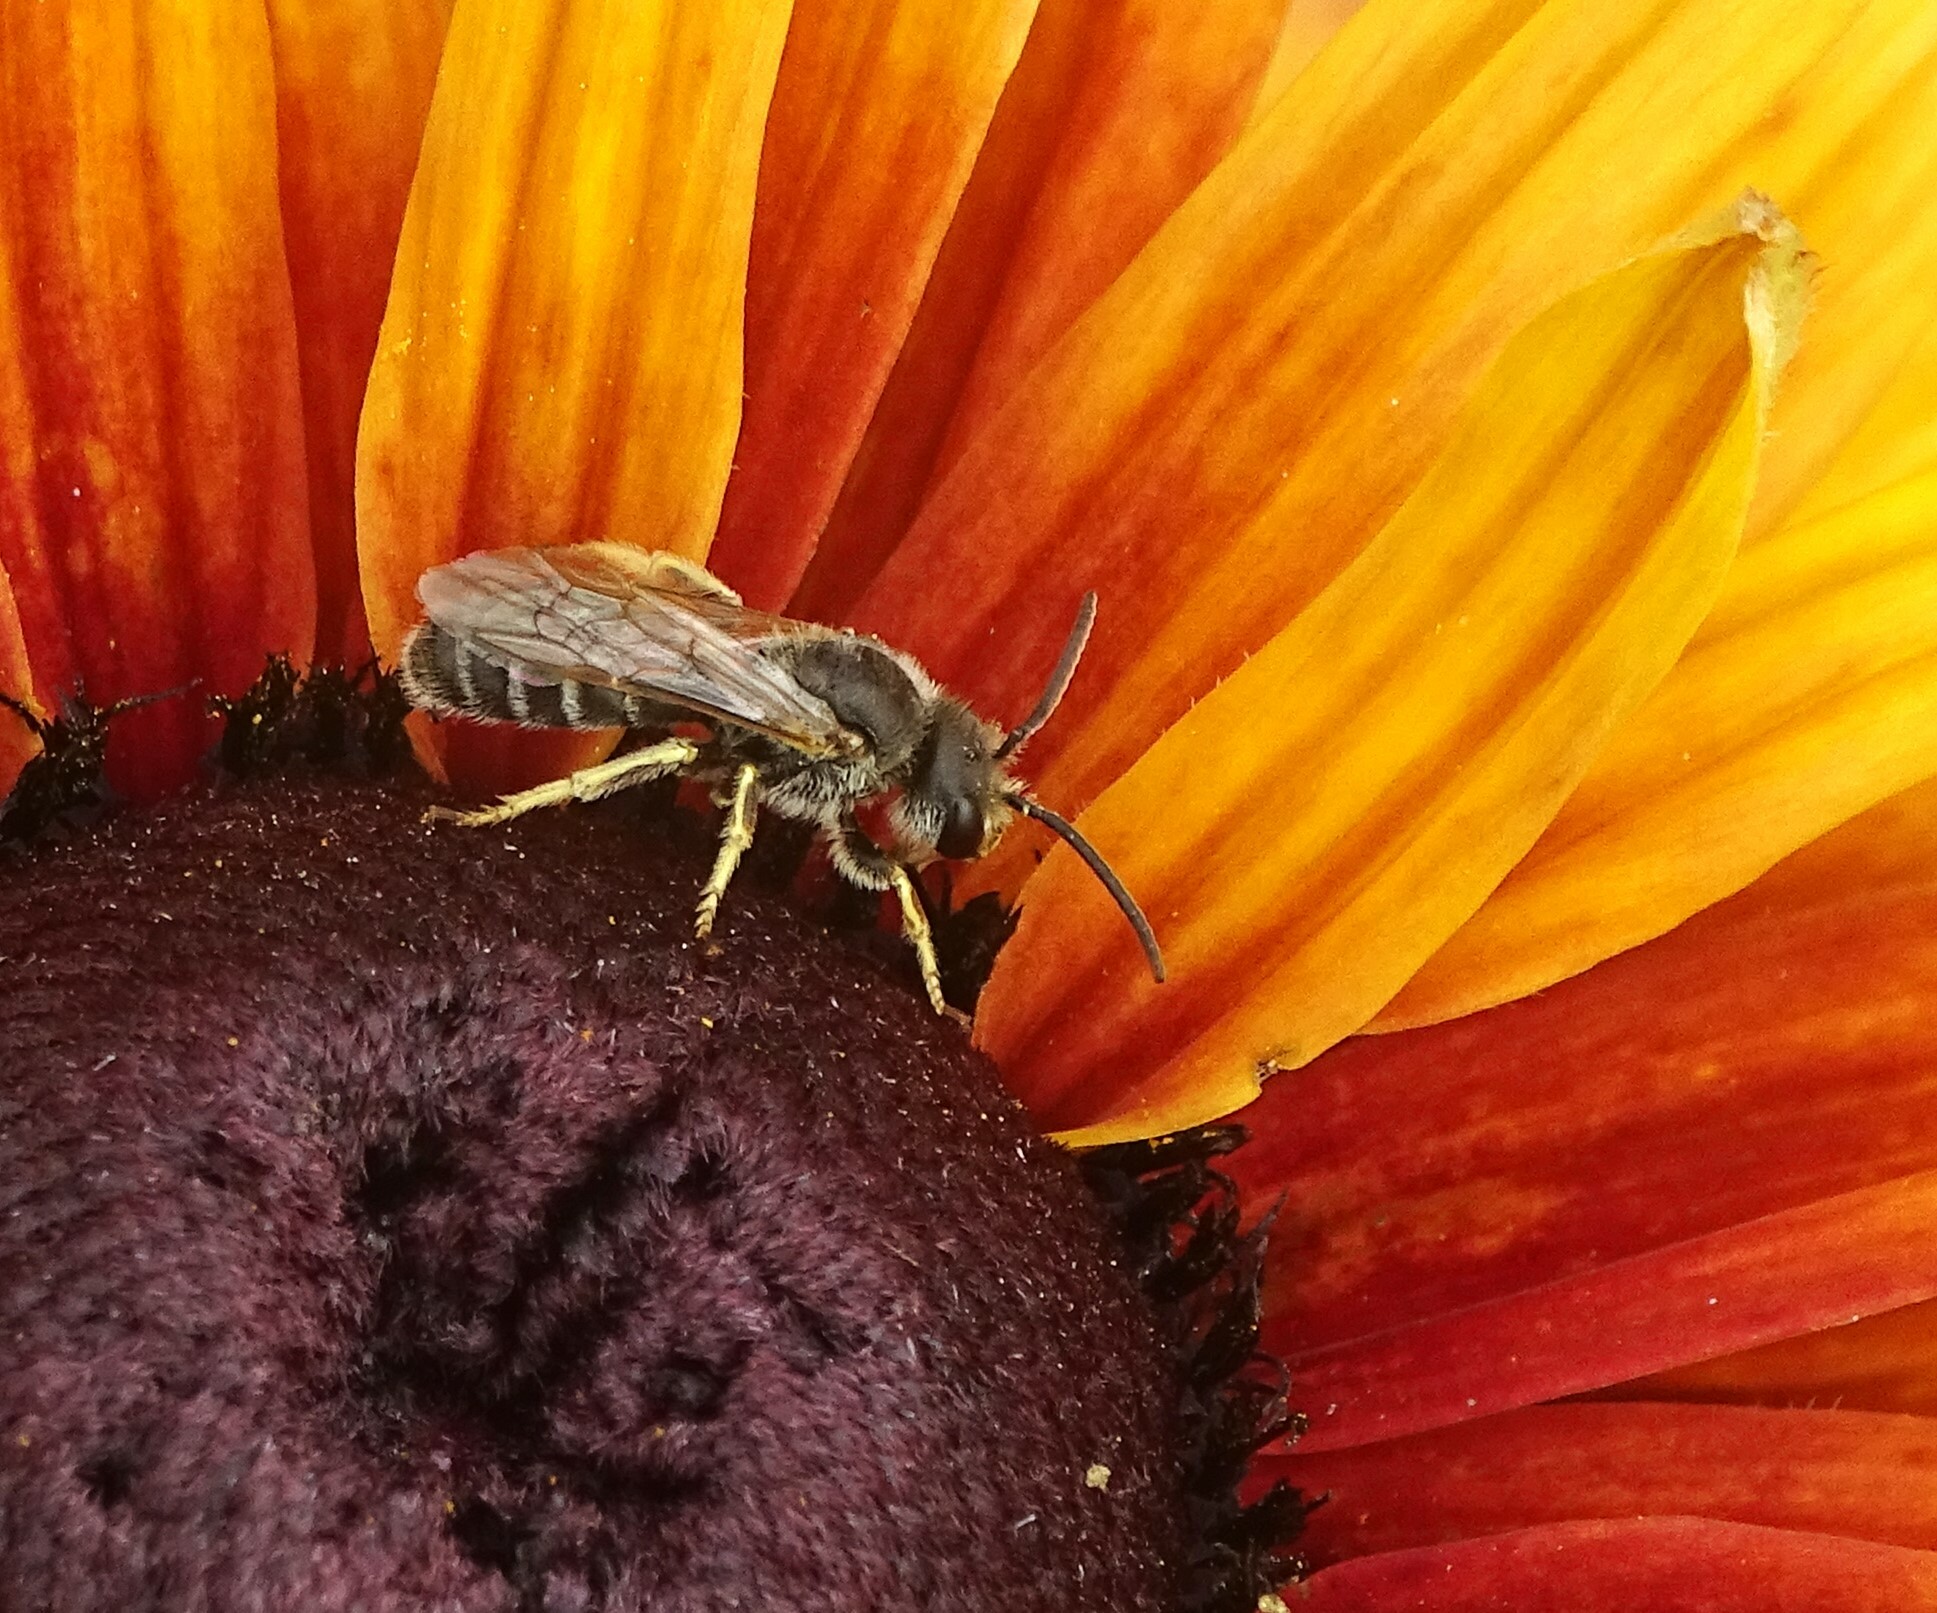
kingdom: Animalia
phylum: Arthropoda
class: Insecta
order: Hymenoptera
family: Halictidae
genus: Halictus
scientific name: Halictus ligatus
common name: Ligated furrow bee
